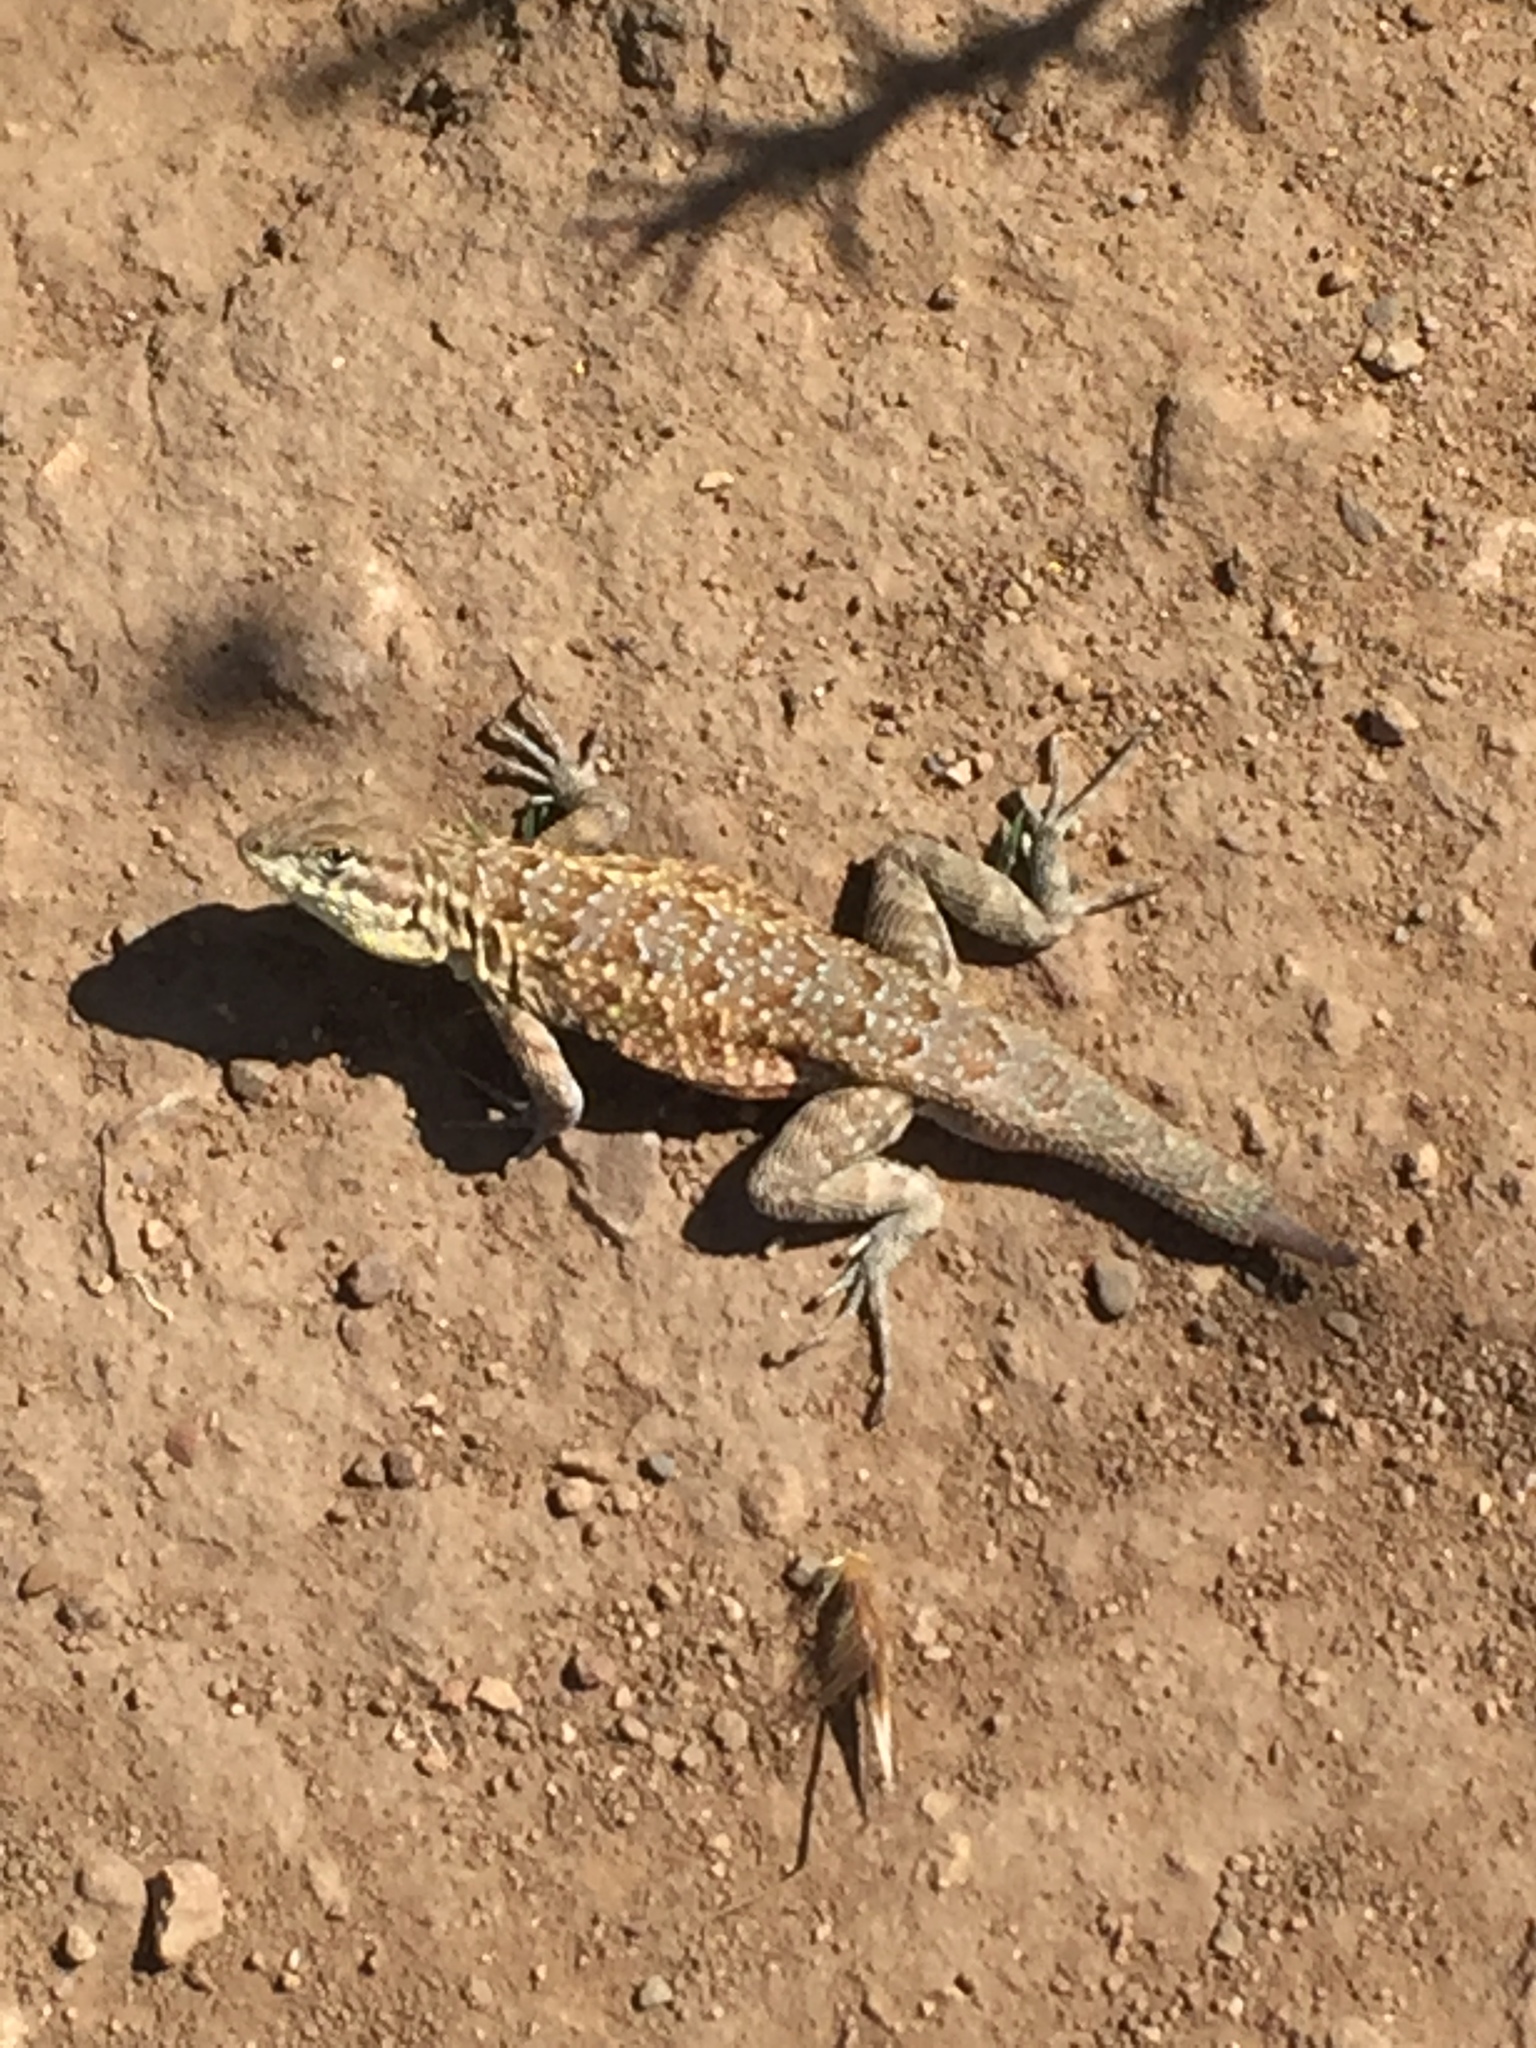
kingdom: Animalia
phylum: Chordata
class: Squamata
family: Phrynosomatidae
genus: Uta
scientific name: Uta stansburiana
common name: Side-blotched lizard
